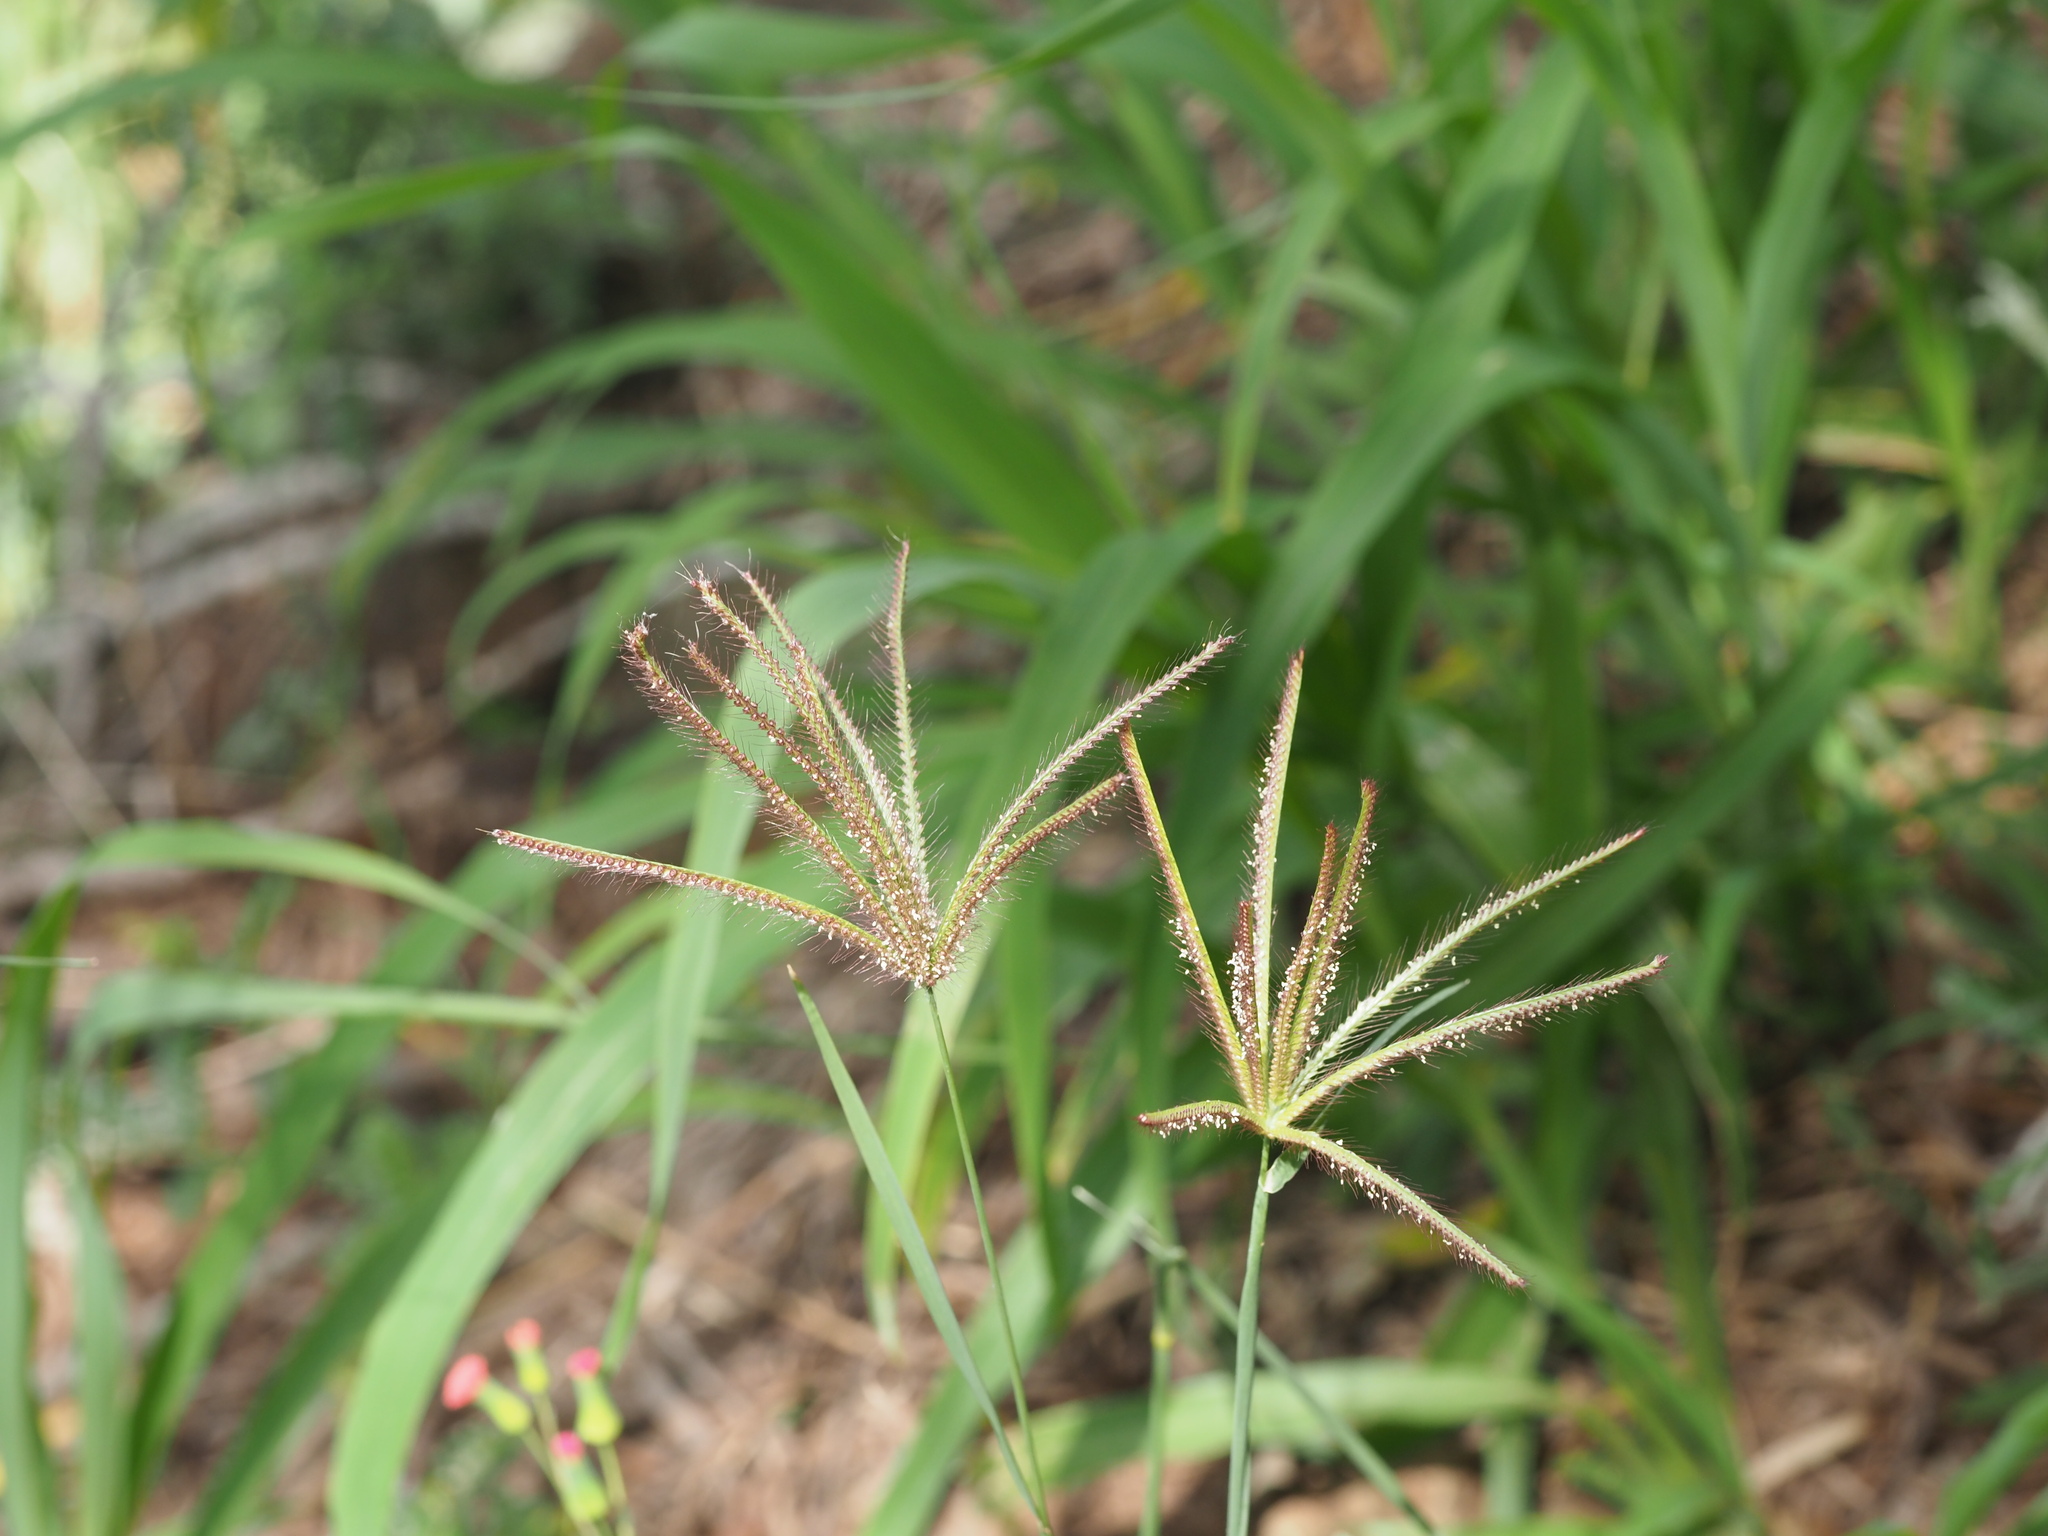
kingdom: Plantae
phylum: Tracheophyta
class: Liliopsida
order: Poales
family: Poaceae
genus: Chloris
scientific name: Chloris barbata
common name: Swollen fingergrass
